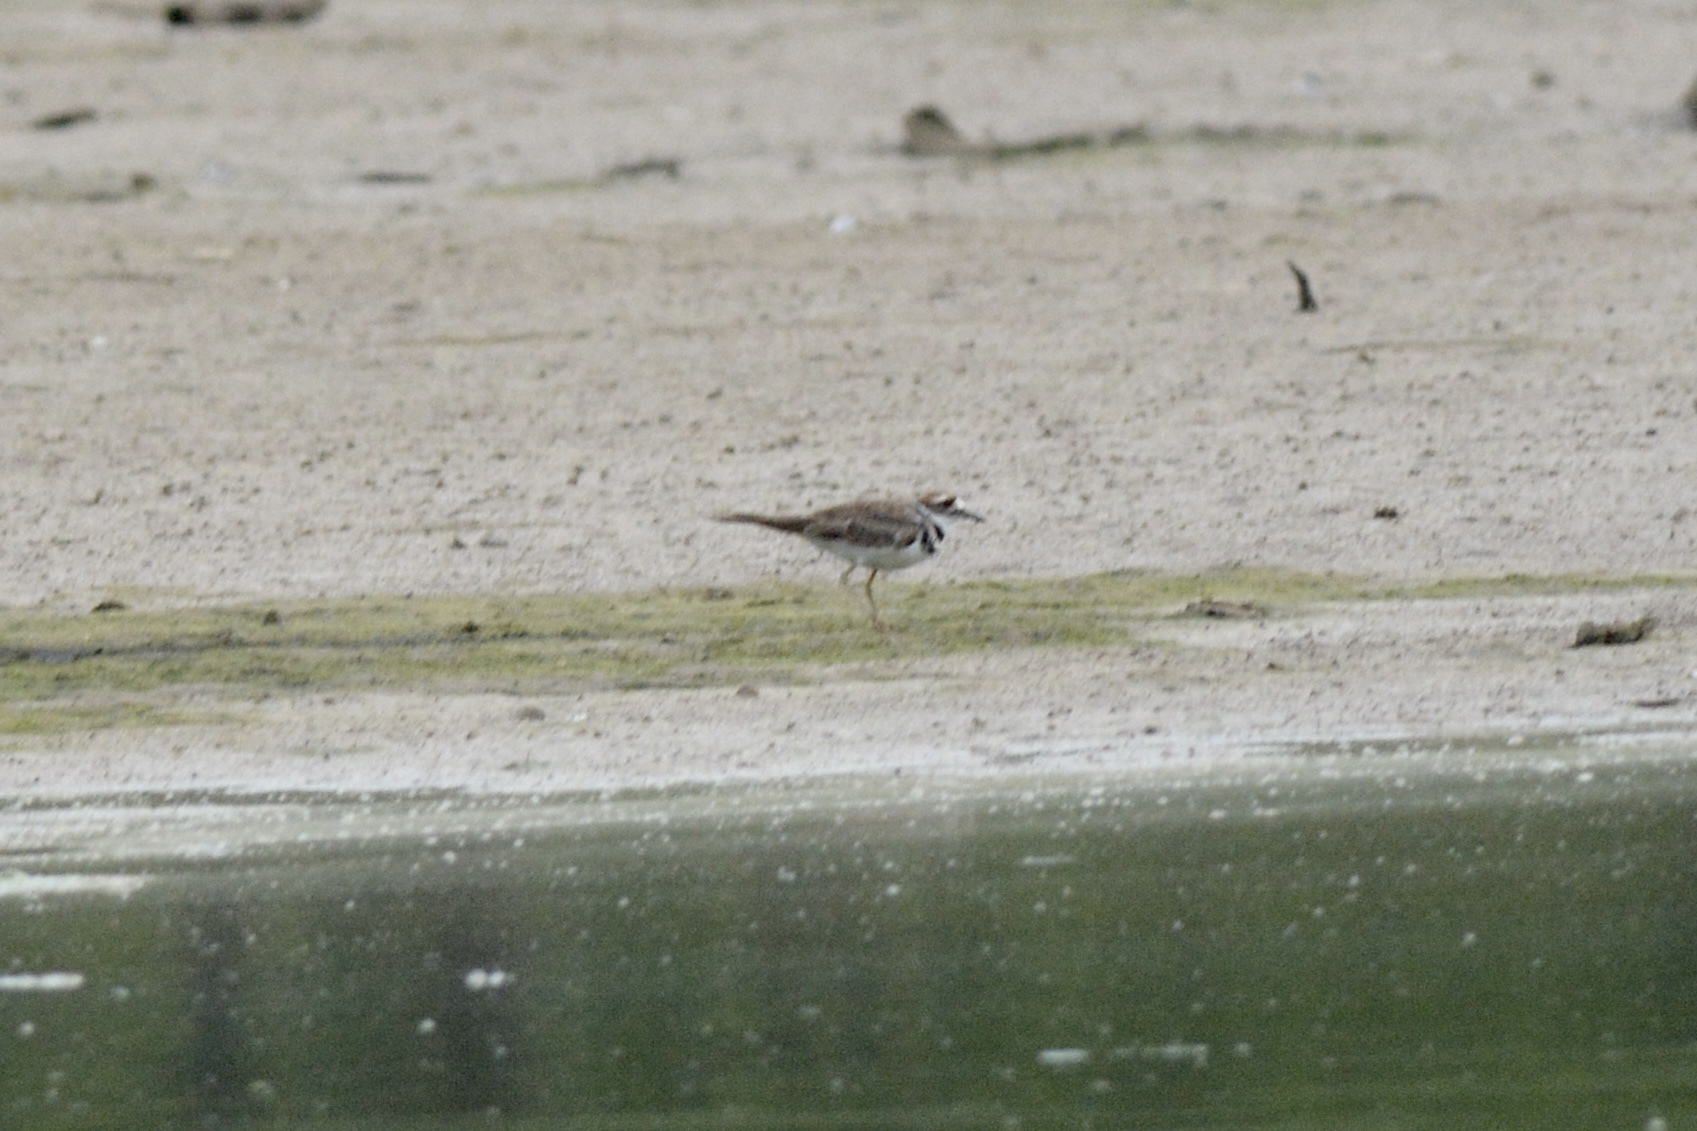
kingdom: Animalia
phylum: Chordata
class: Aves
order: Charadriiformes
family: Charadriidae
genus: Charadrius
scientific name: Charadrius vociferus
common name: Killdeer
